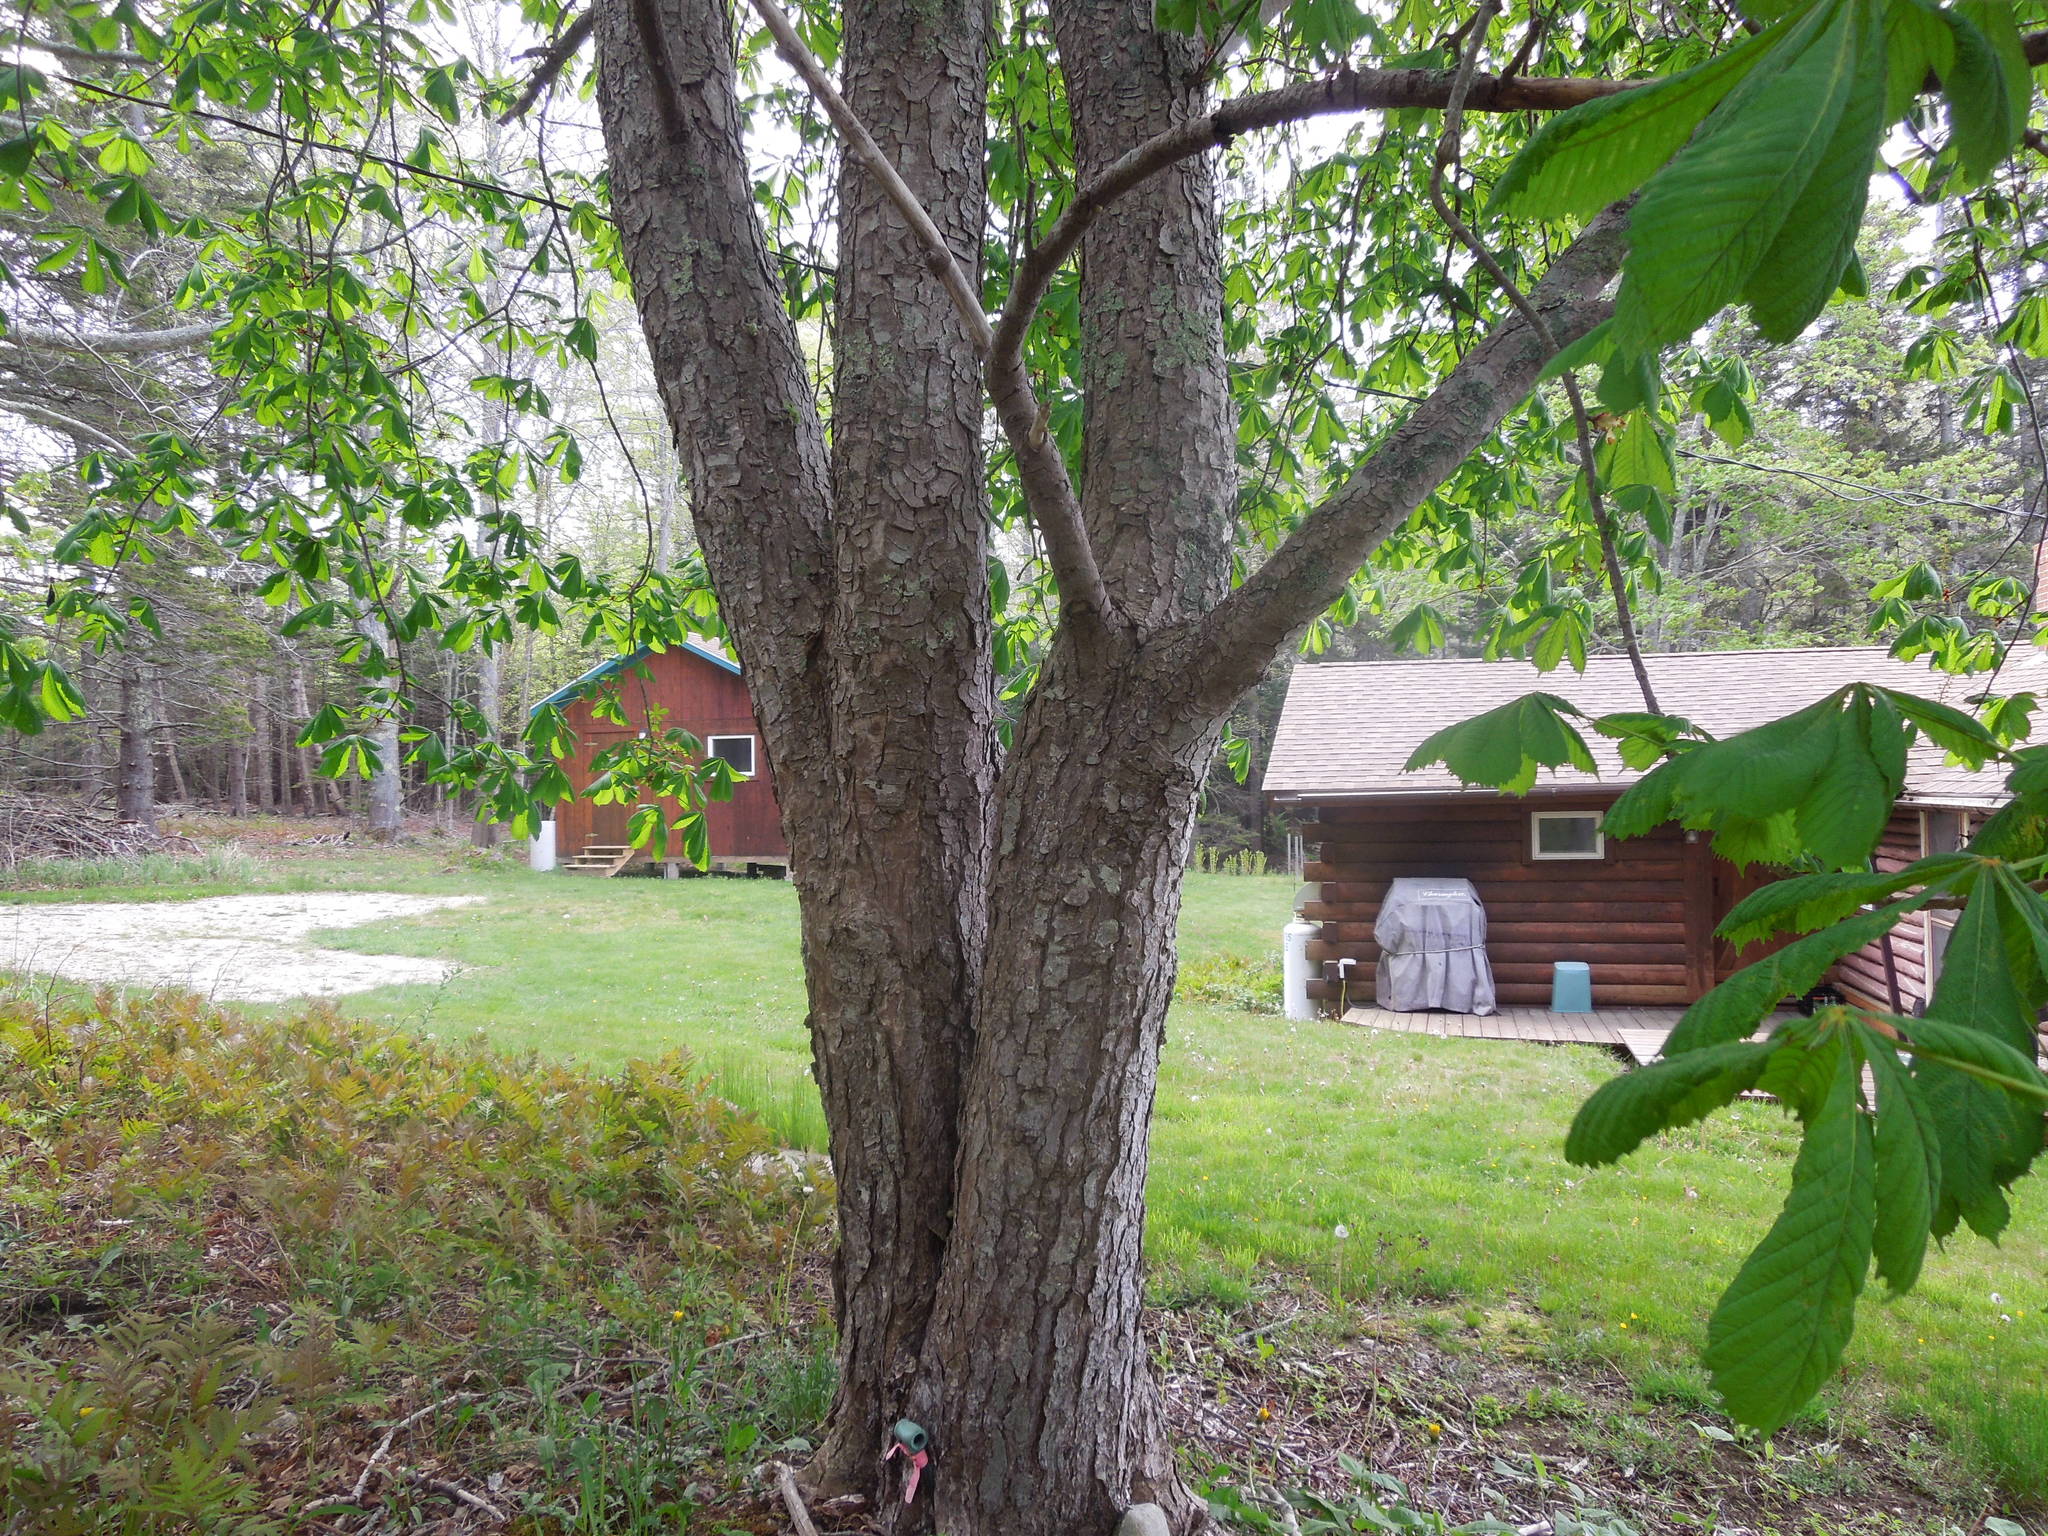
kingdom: Plantae
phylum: Tracheophyta
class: Magnoliopsida
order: Sapindales
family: Sapindaceae
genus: Aesculus
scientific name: Aesculus hippocastanum
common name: Horse-chestnut
